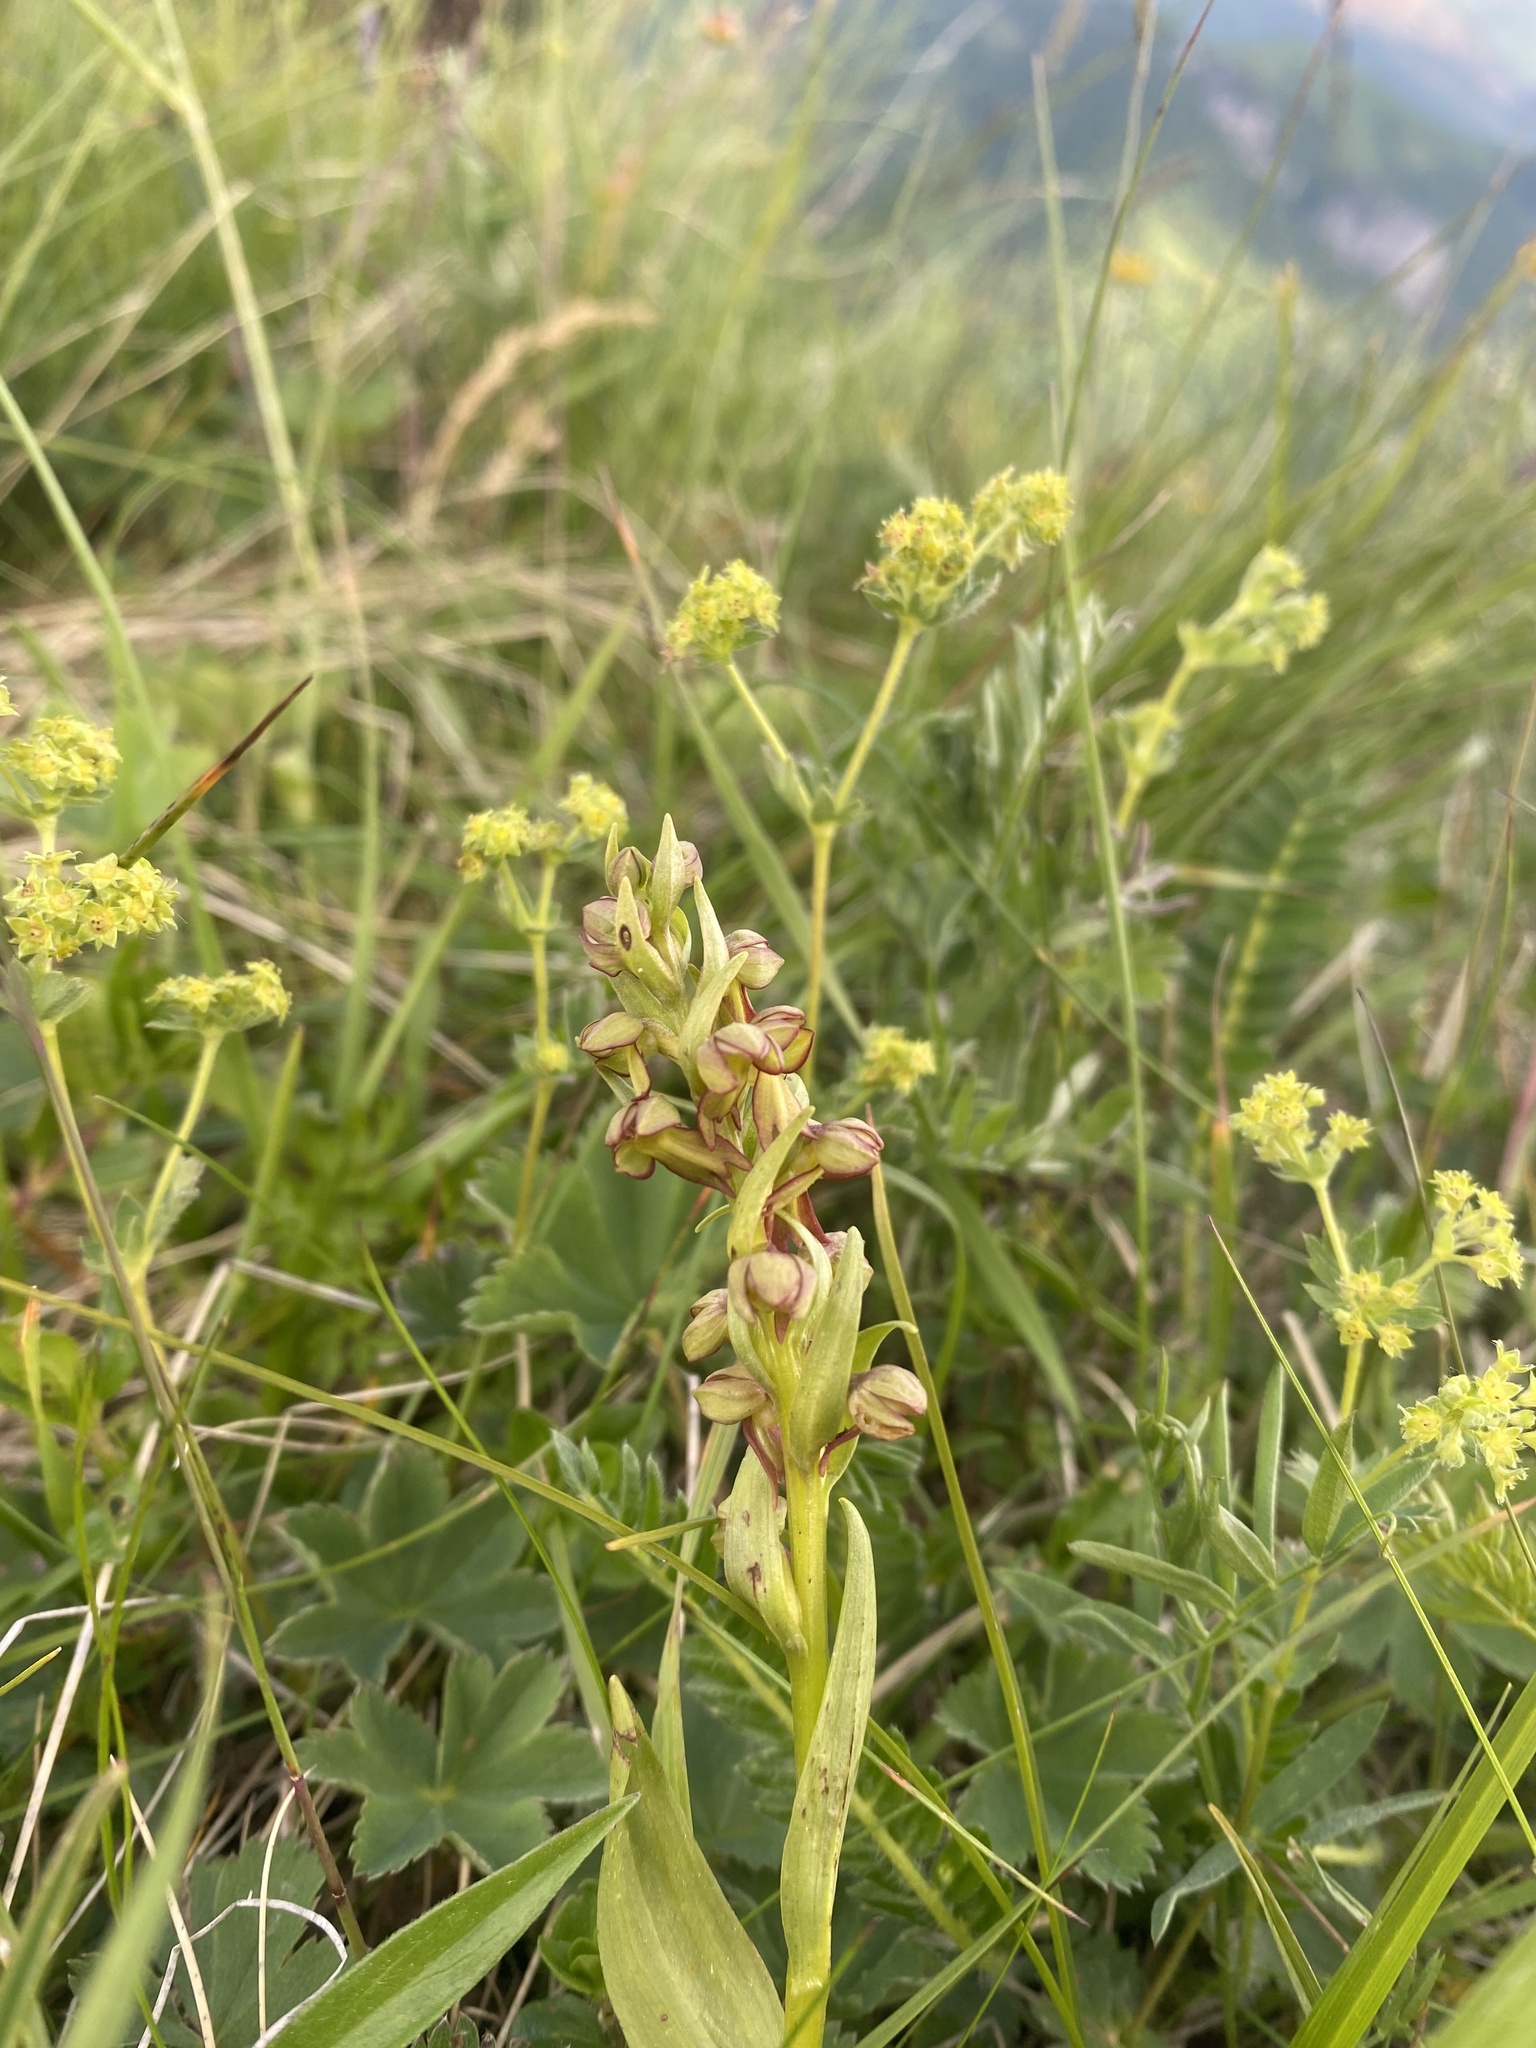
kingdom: Plantae
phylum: Tracheophyta
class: Liliopsida
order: Asparagales
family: Orchidaceae
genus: Dactylorhiza
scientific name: Dactylorhiza viridis
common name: Longbract frog orchid
